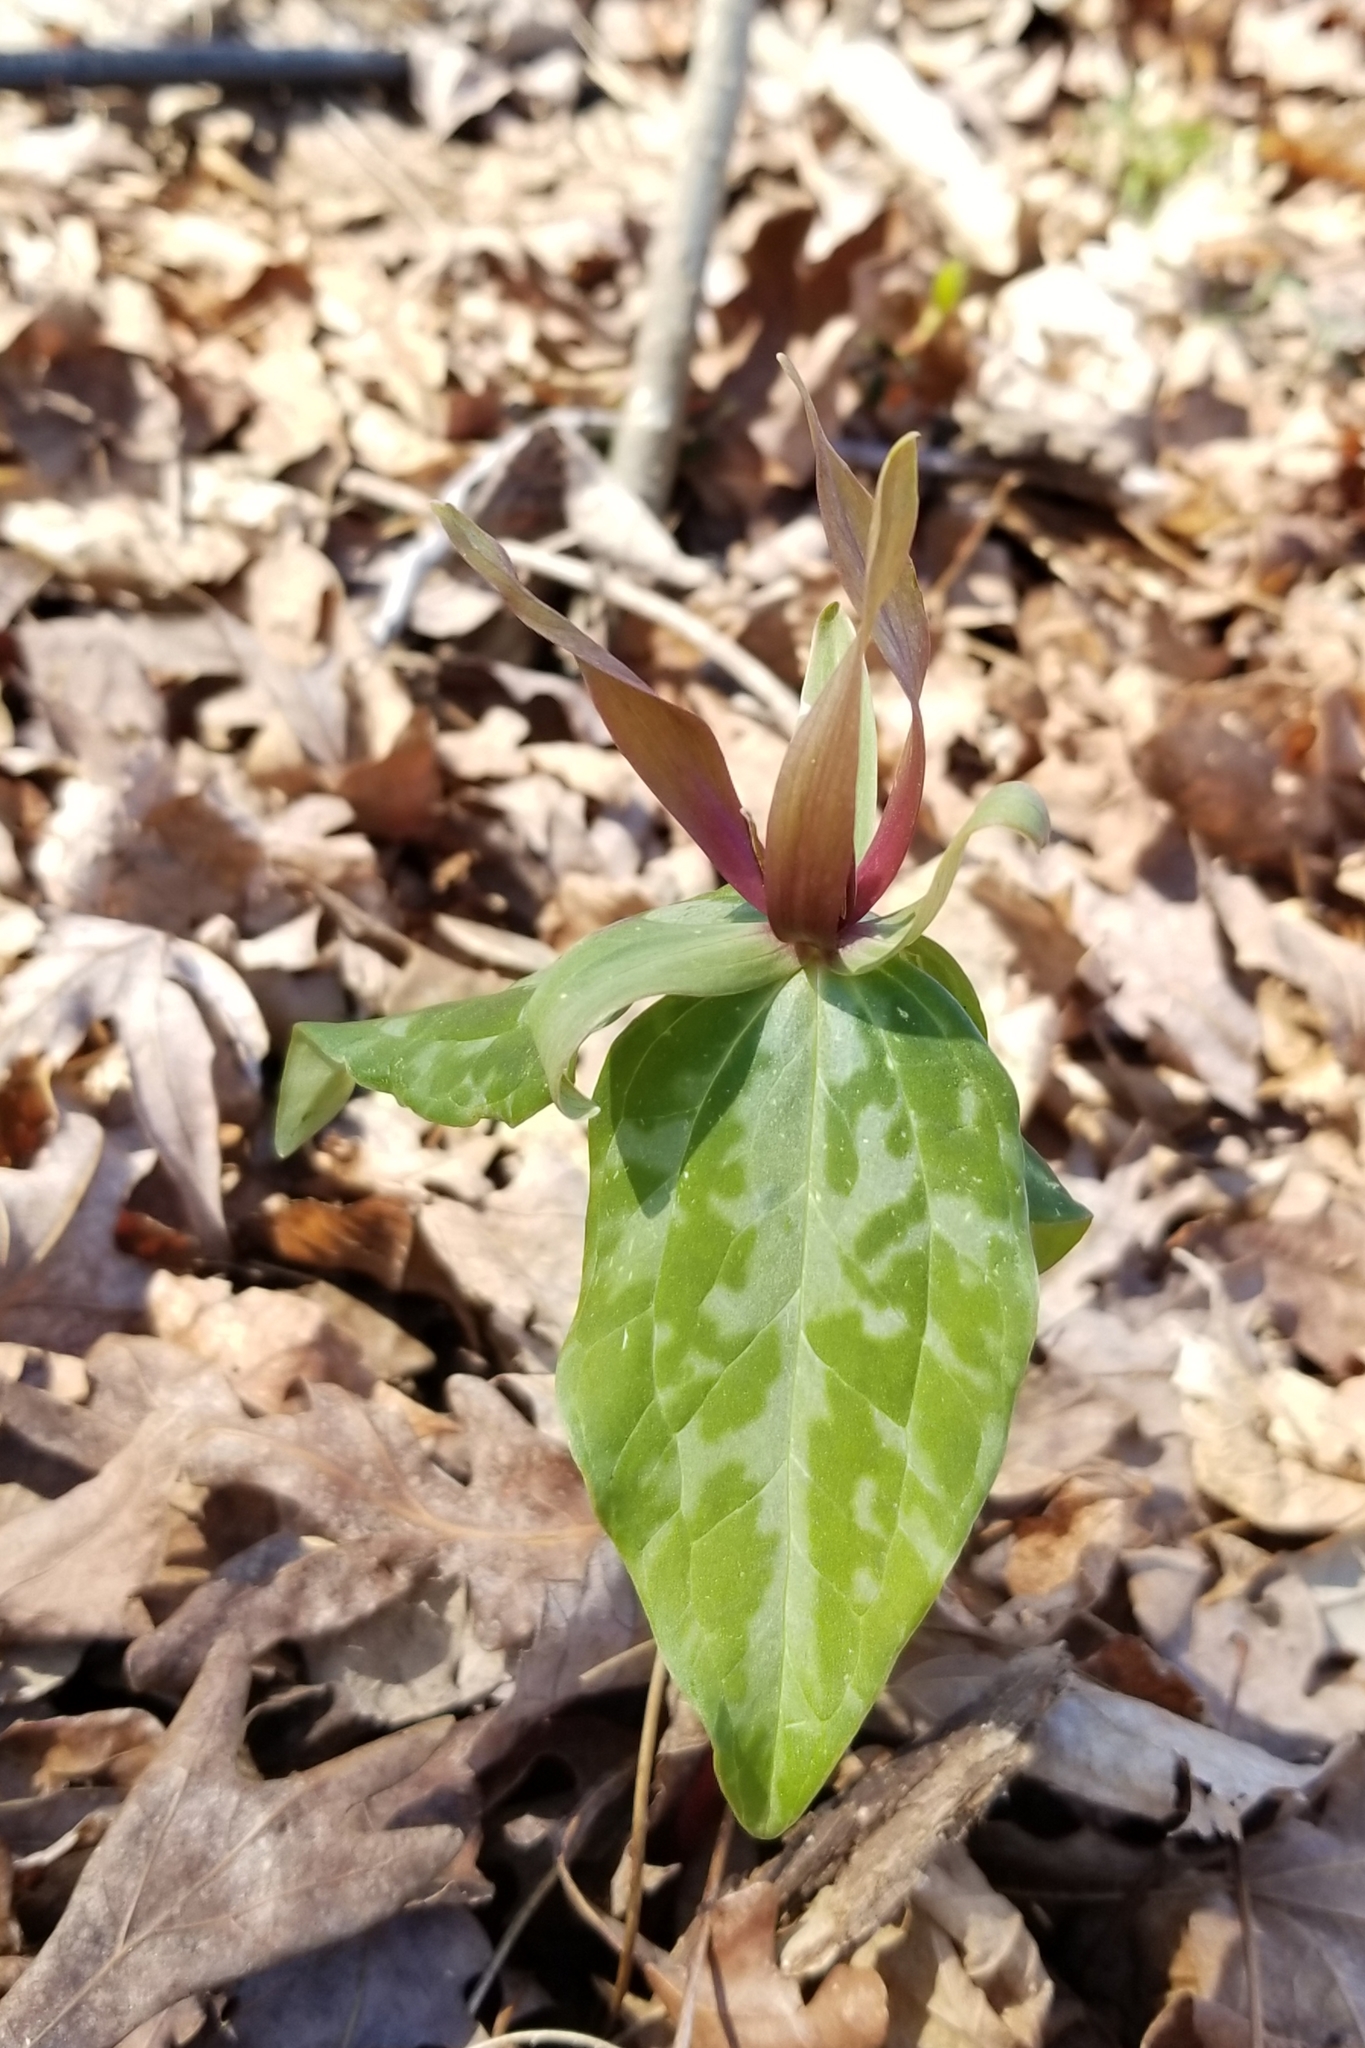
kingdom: Plantae
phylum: Tracheophyta
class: Liliopsida
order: Liliales
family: Melanthiaceae
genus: Trillium
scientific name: Trillium cuneatum
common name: Cuneate trillium
